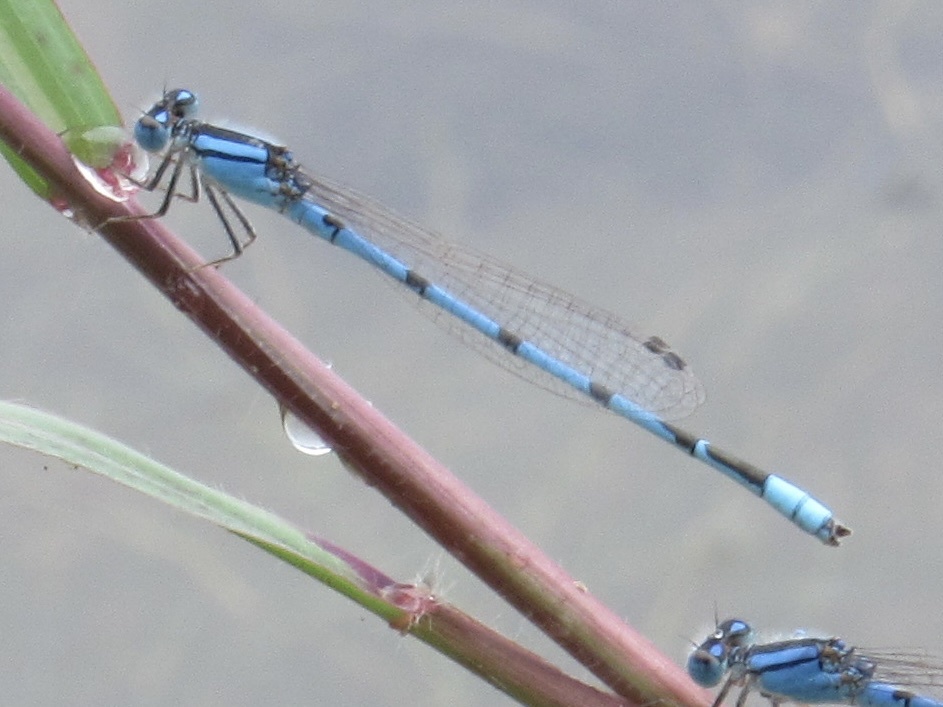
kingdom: Animalia
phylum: Arthropoda
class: Insecta
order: Odonata
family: Coenagrionidae
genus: Enallagma
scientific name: Enallagma civile
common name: Damselfly
